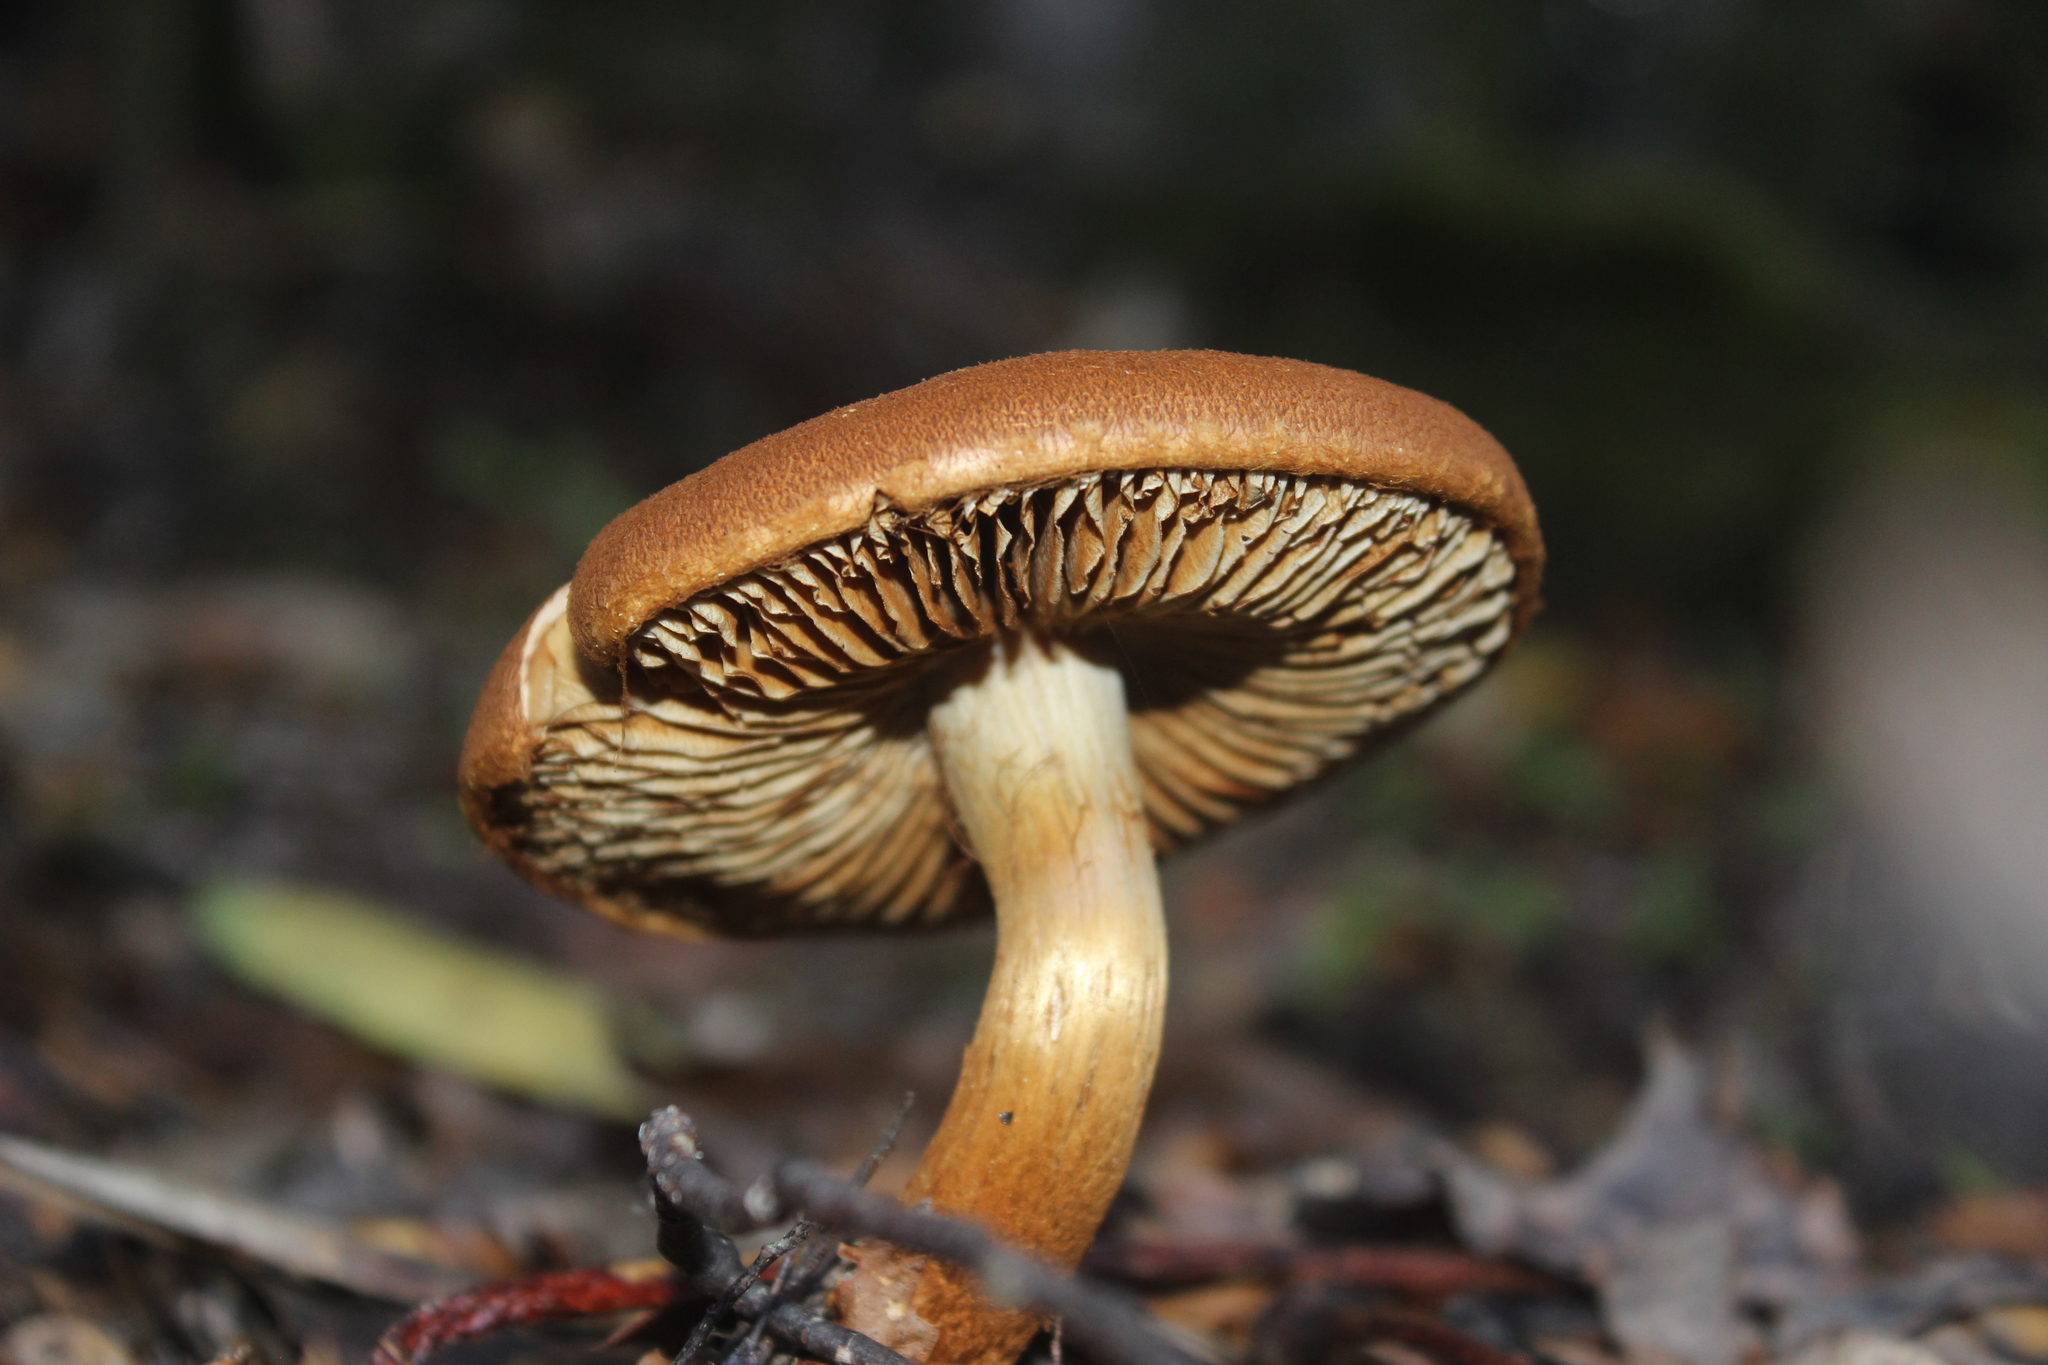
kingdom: Fungi
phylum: Basidiomycota
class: Agaricomycetes
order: Agaricales
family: Cortinariaceae
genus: Thaxterogaster
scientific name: Thaxterogaster castoreus
